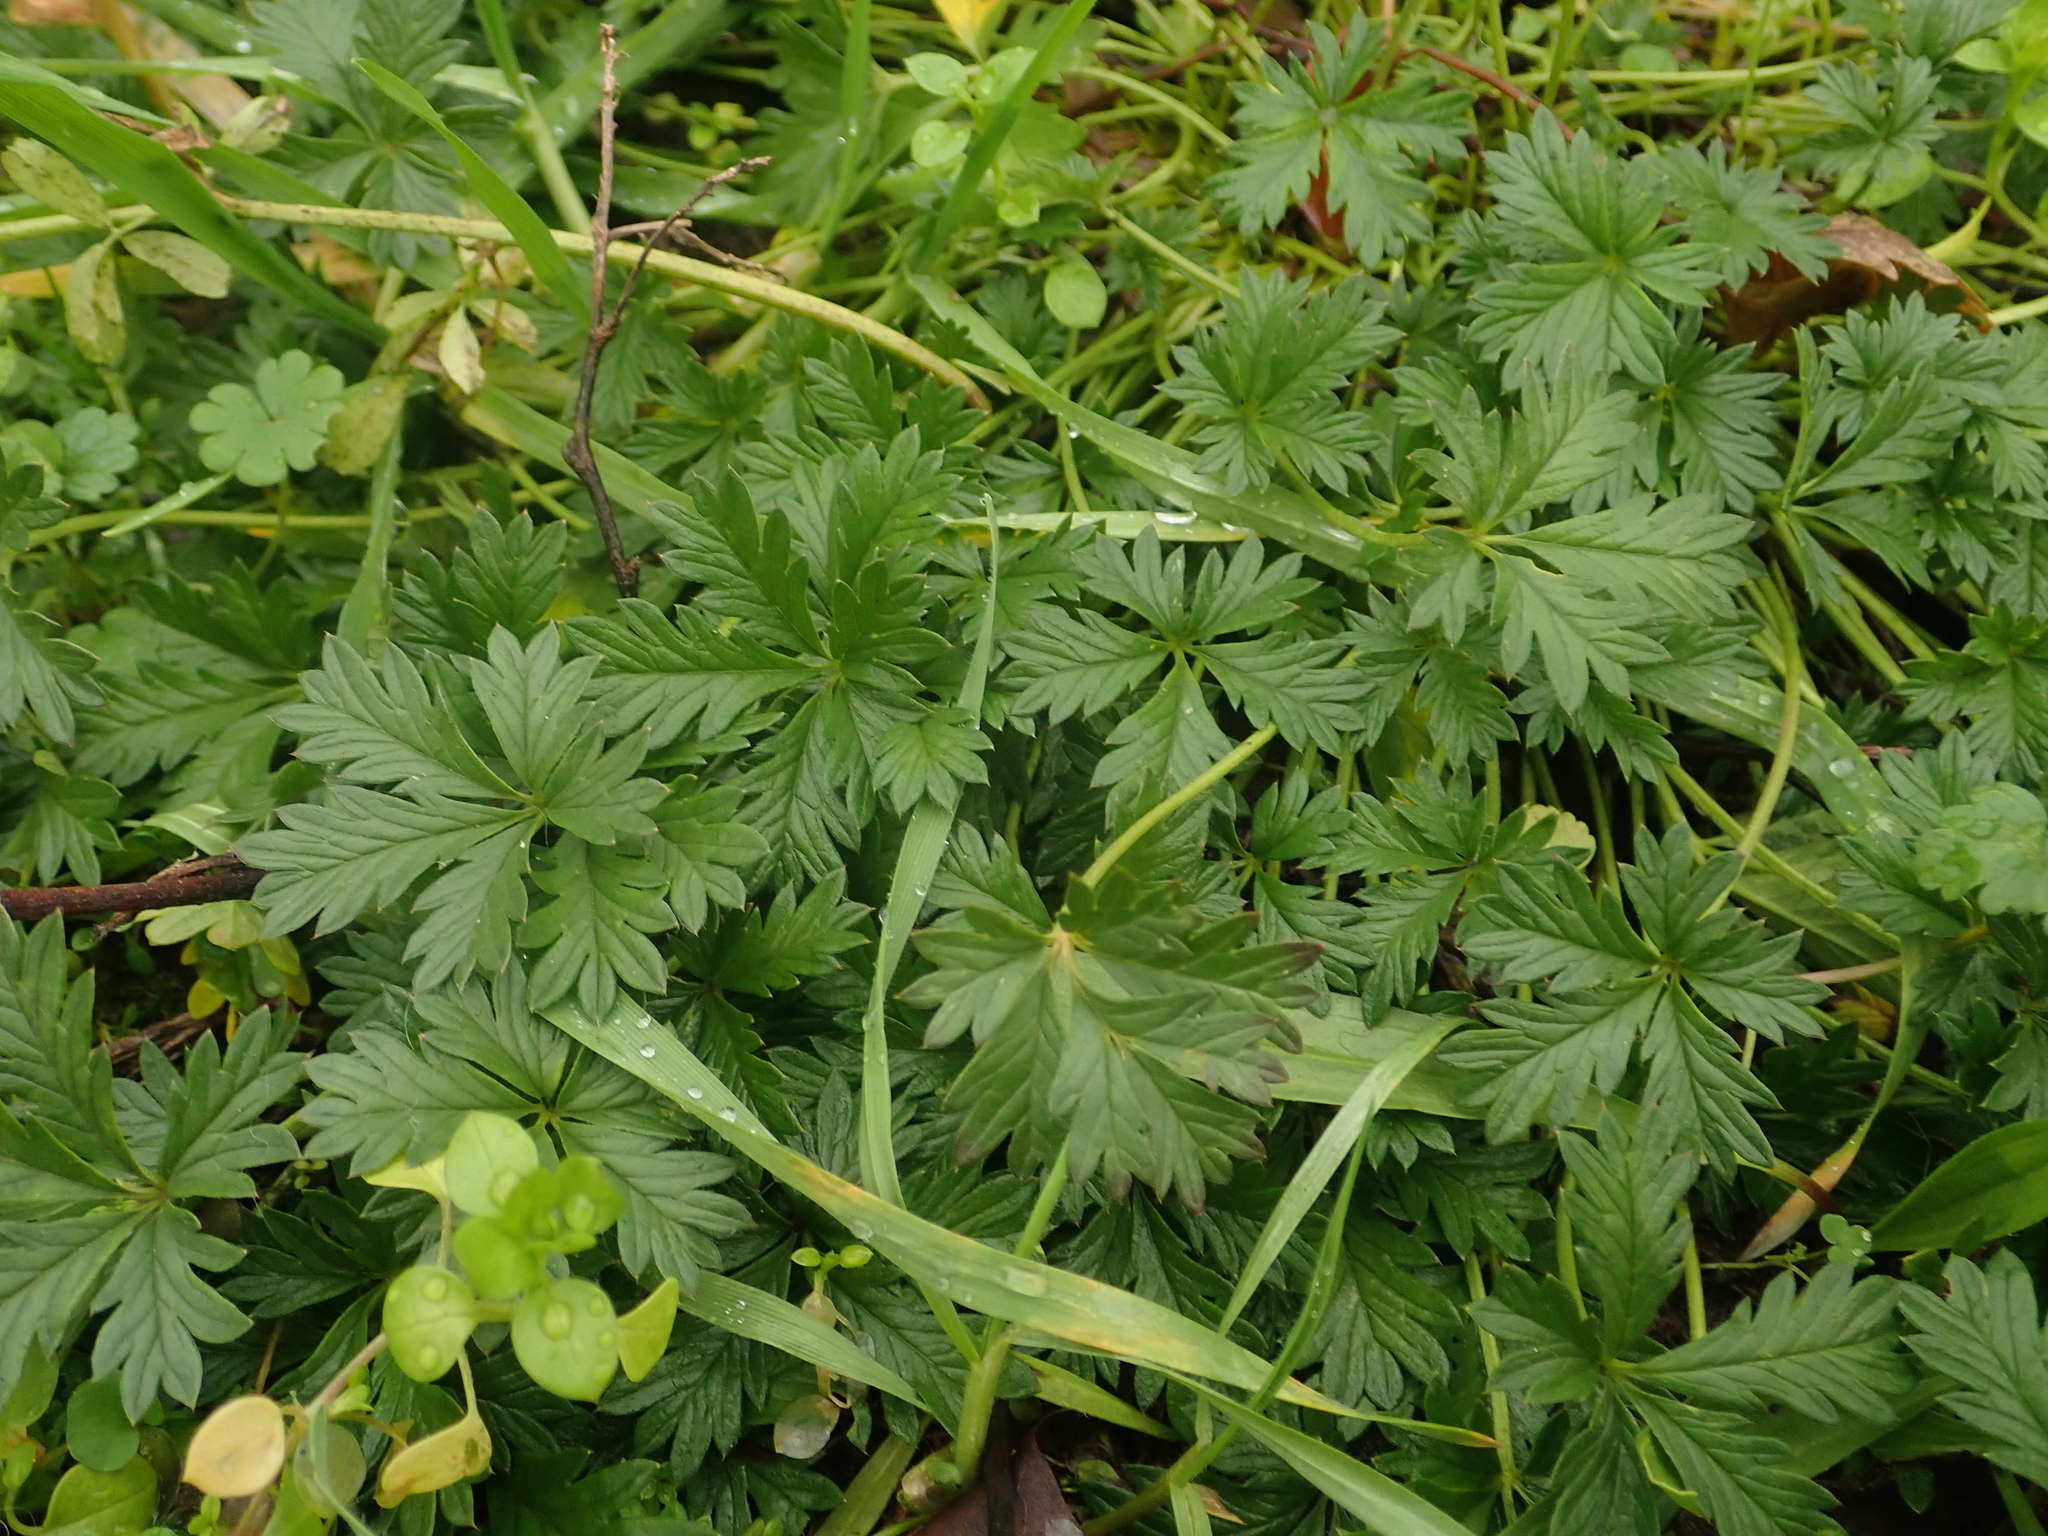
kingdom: Plantae
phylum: Tracheophyta
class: Magnoliopsida
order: Rosales
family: Rosaceae
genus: Potentilla
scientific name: Potentilla argentea
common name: Hoary cinquefoil
